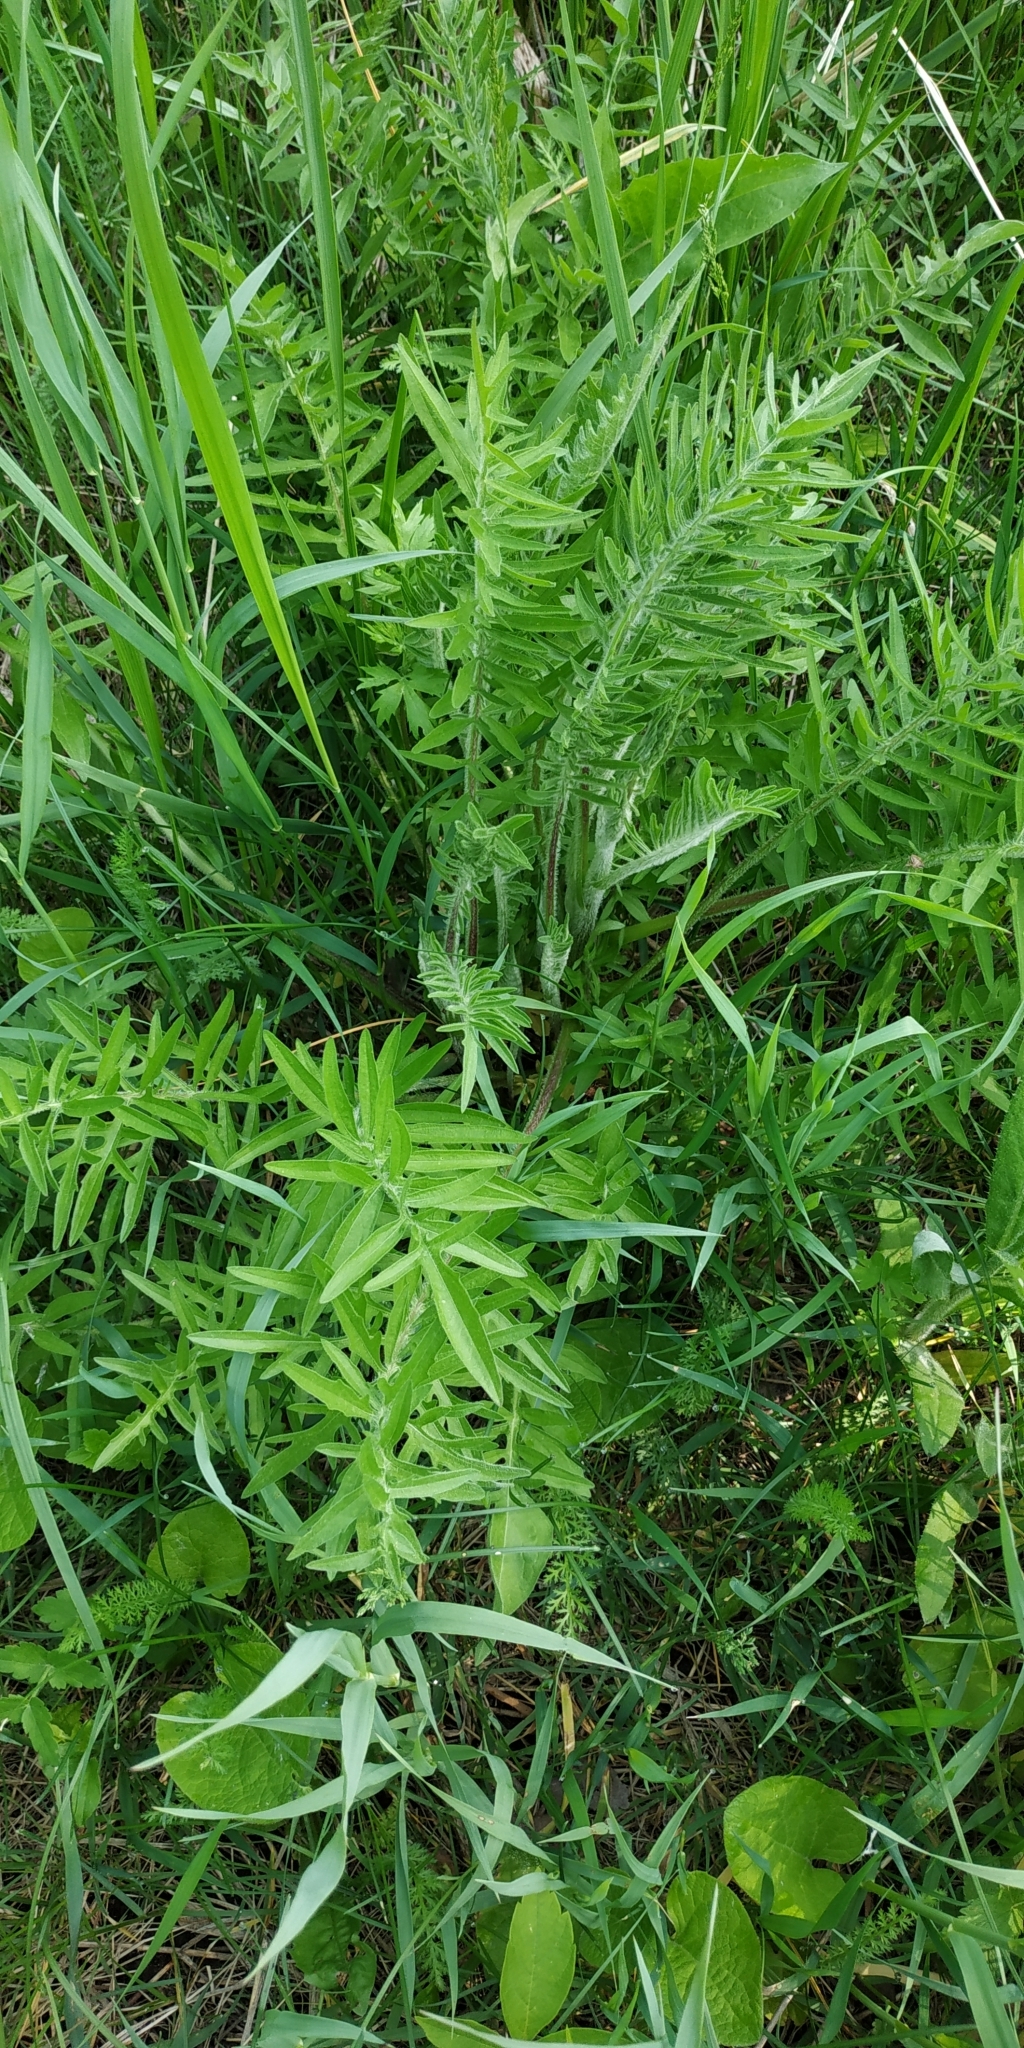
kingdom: Plantae
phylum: Tracheophyta
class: Magnoliopsida
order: Asterales
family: Asteraceae
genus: Centaurea
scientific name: Centaurea scabiosa
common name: Greater knapweed
